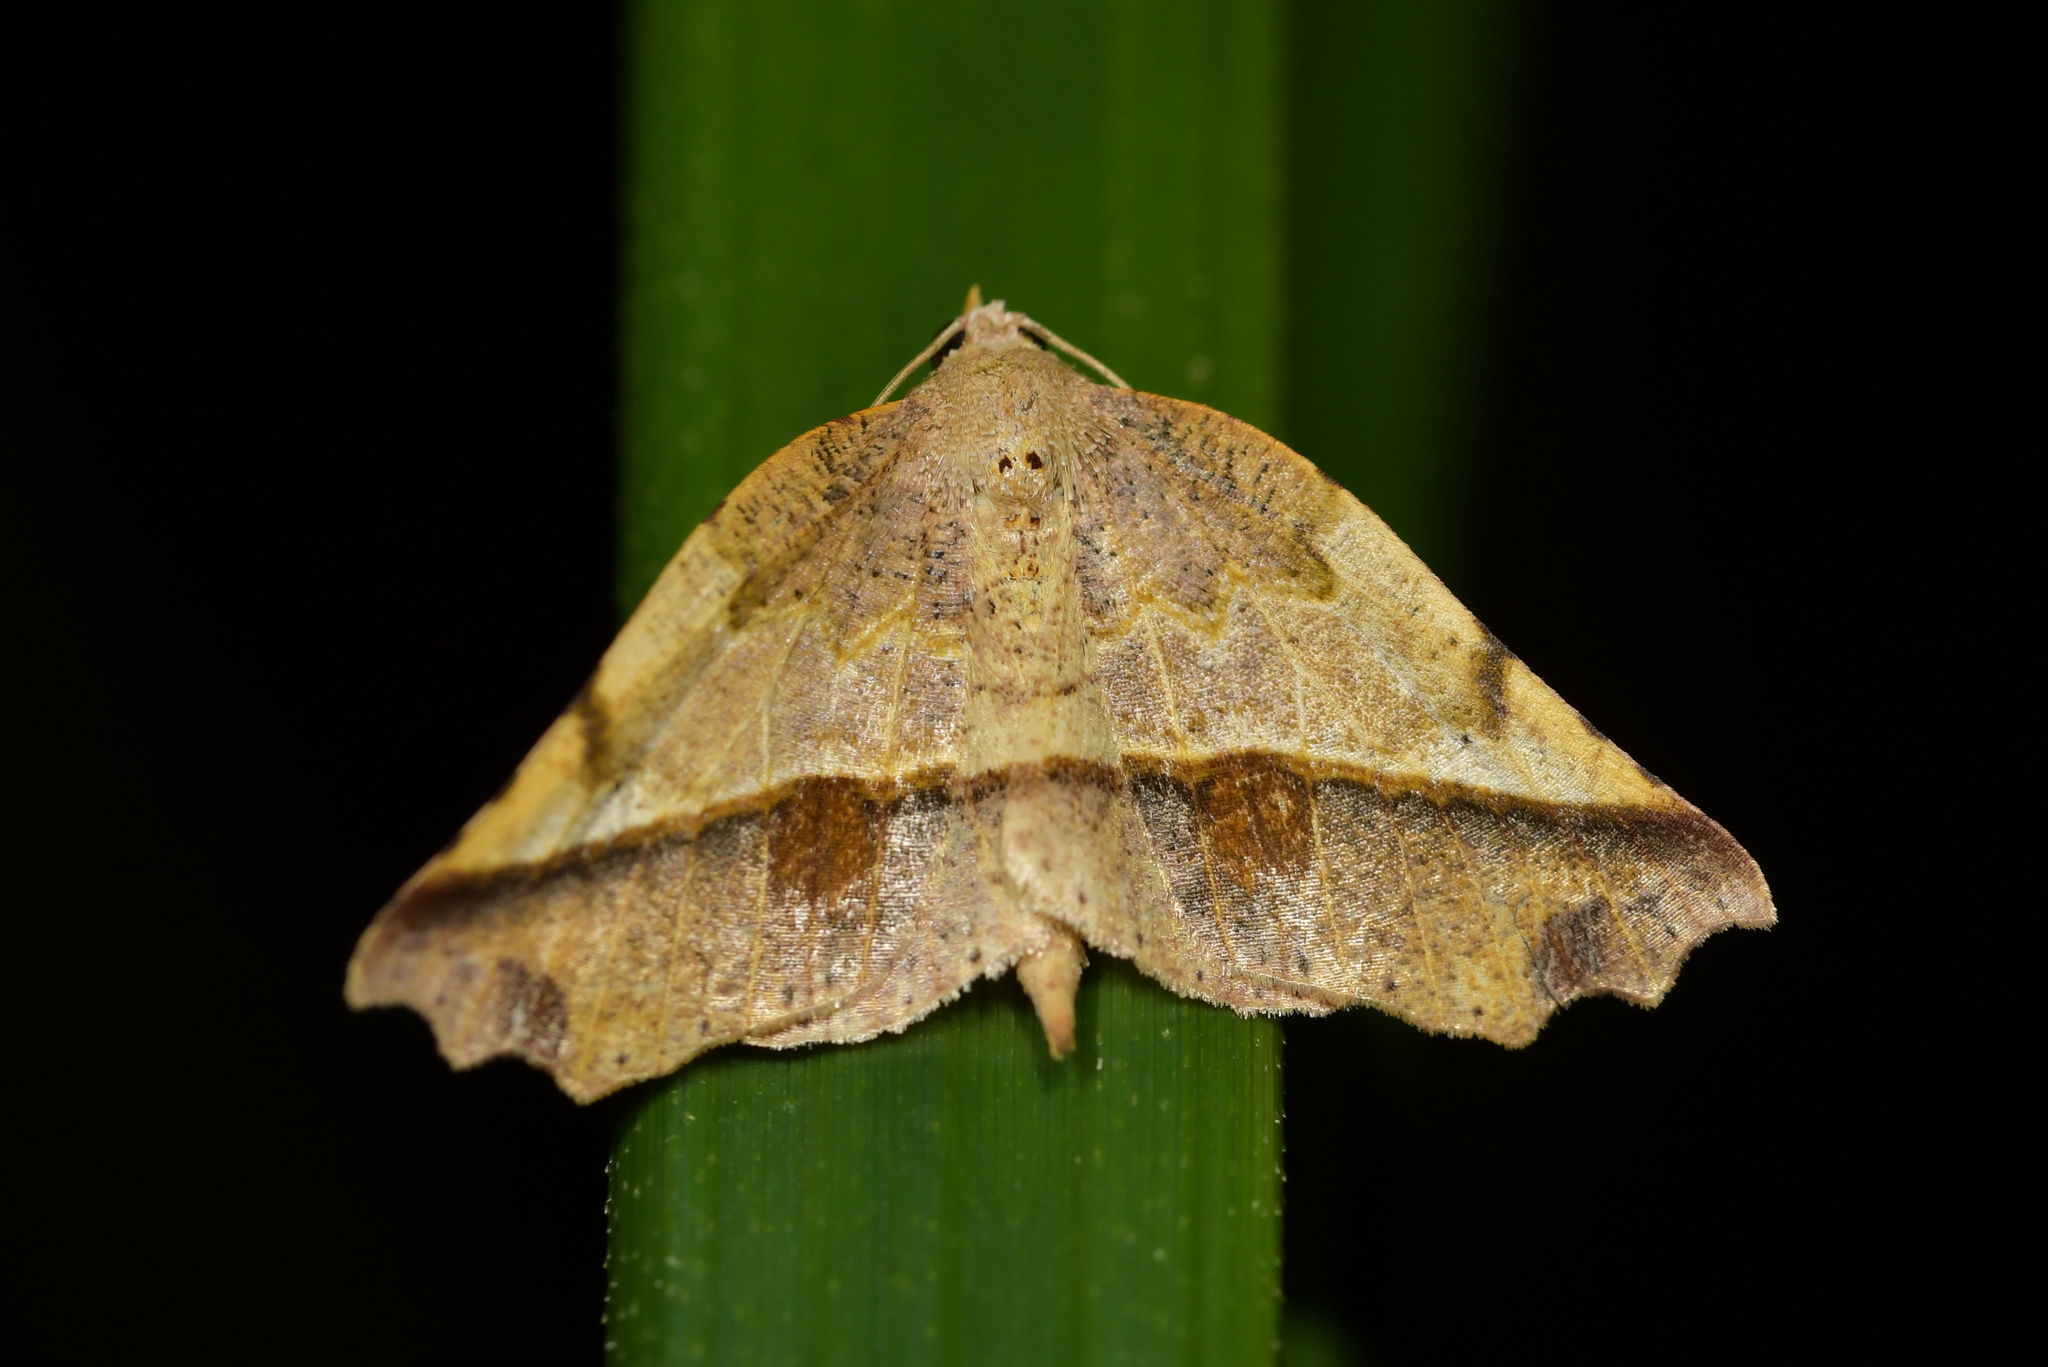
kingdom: Animalia
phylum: Arthropoda
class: Insecta
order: Lepidoptera
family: Geometridae
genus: Ischalis
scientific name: Ischalis gallaria
